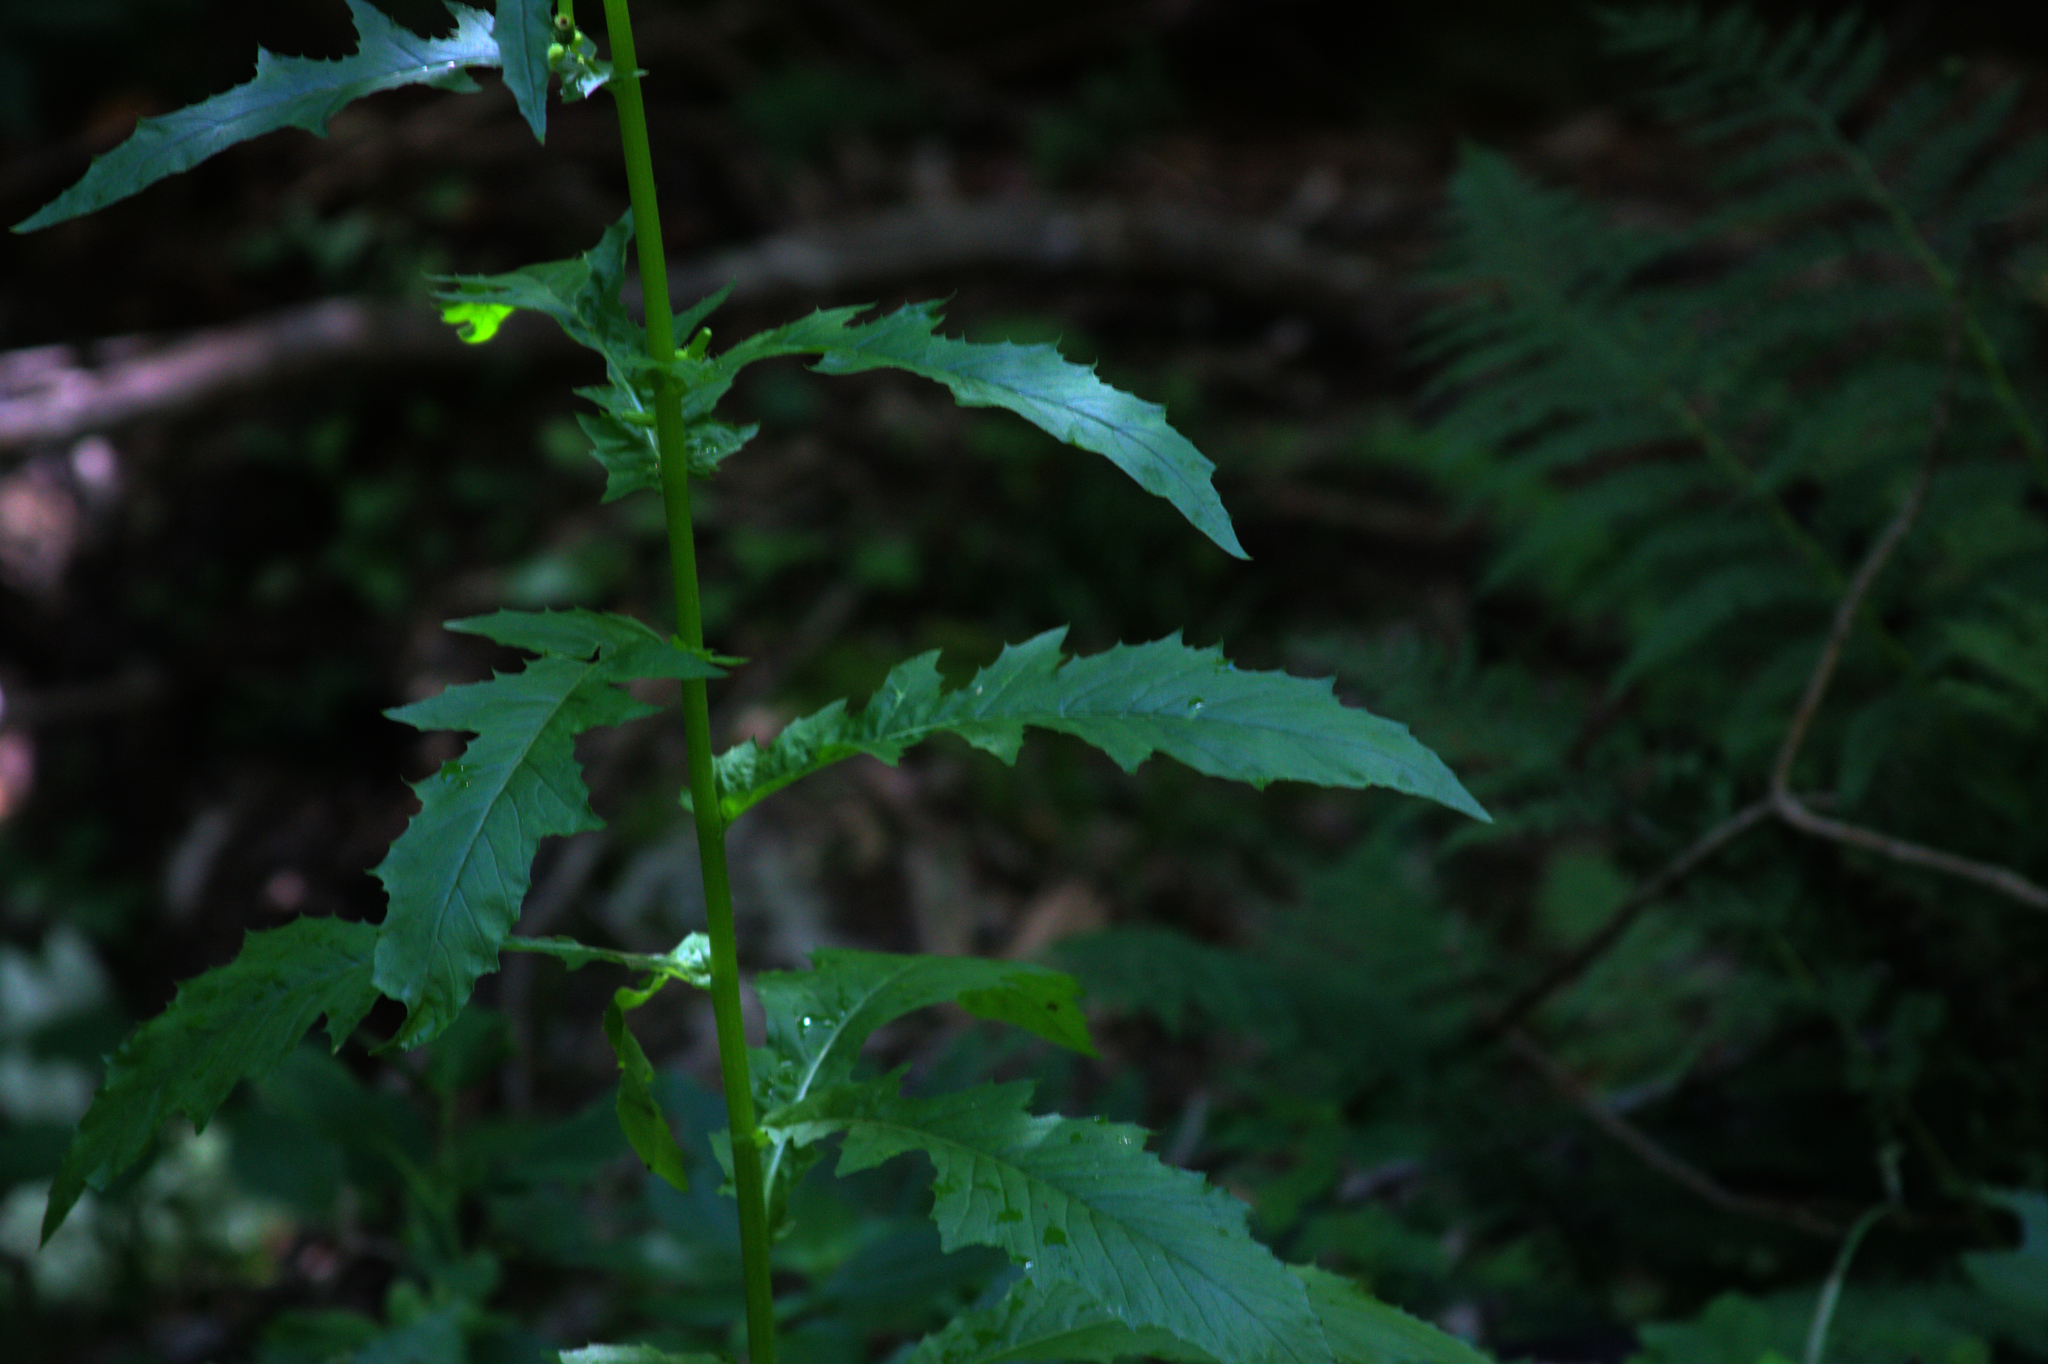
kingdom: Plantae
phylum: Tracheophyta
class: Magnoliopsida
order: Asterales
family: Asteraceae
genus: Erechtites
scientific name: Erechtites hieraciifolius
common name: American burnweed
